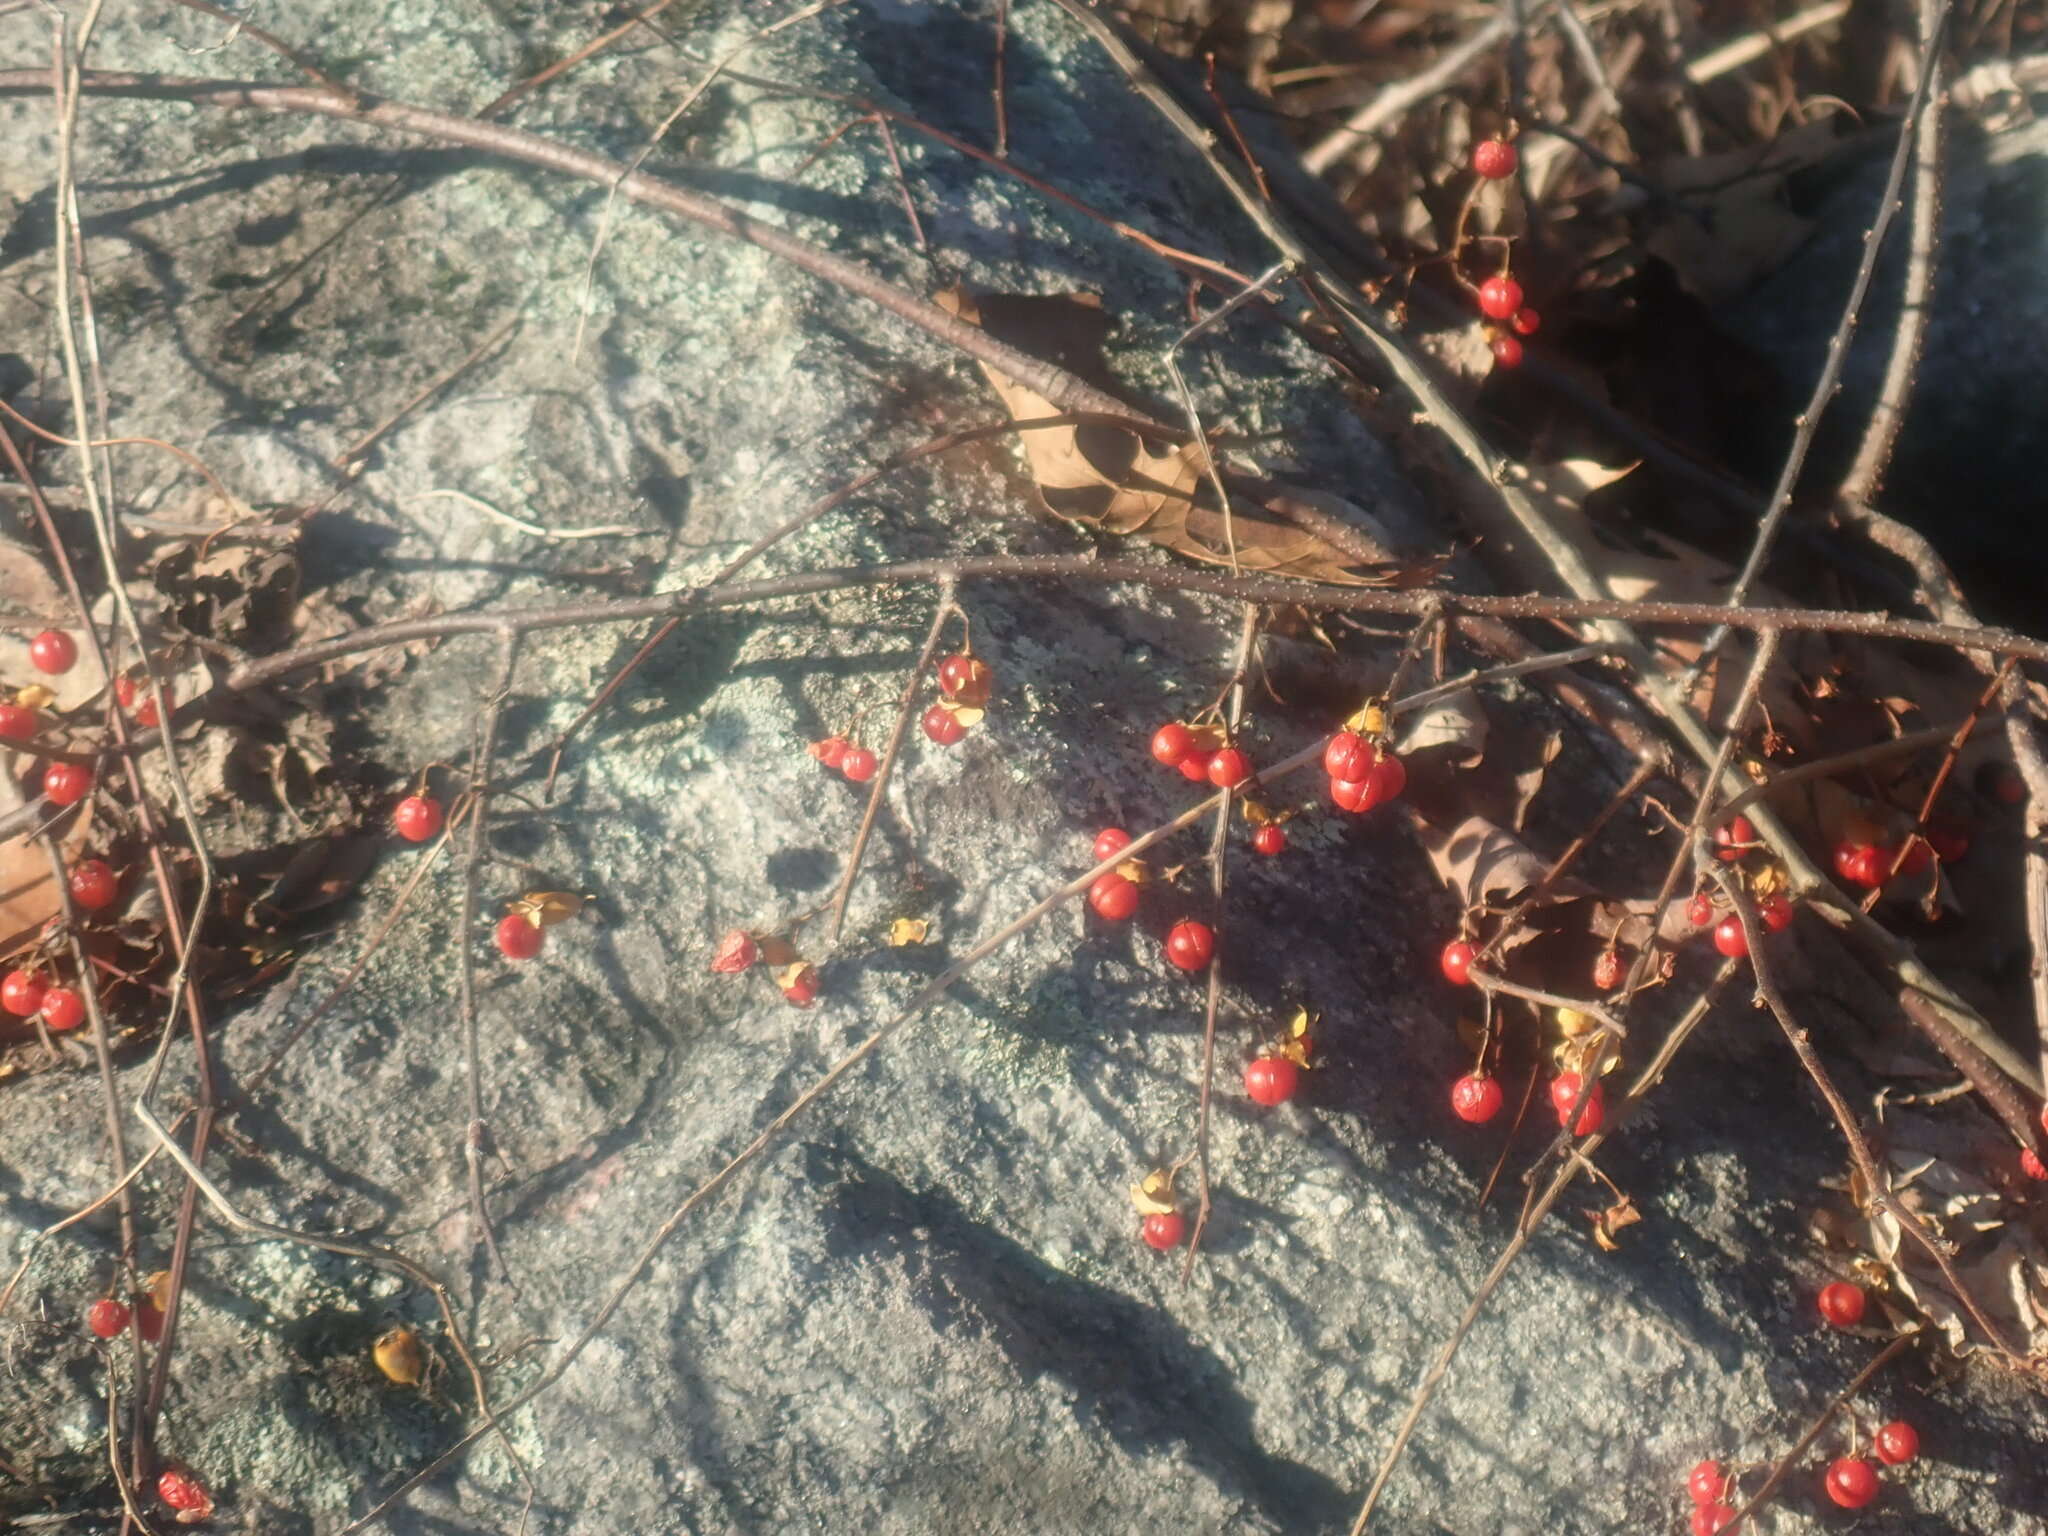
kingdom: Plantae
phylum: Tracheophyta
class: Magnoliopsida
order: Celastrales
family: Celastraceae
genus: Celastrus
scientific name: Celastrus orbiculatus
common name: Oriental bittersweet
